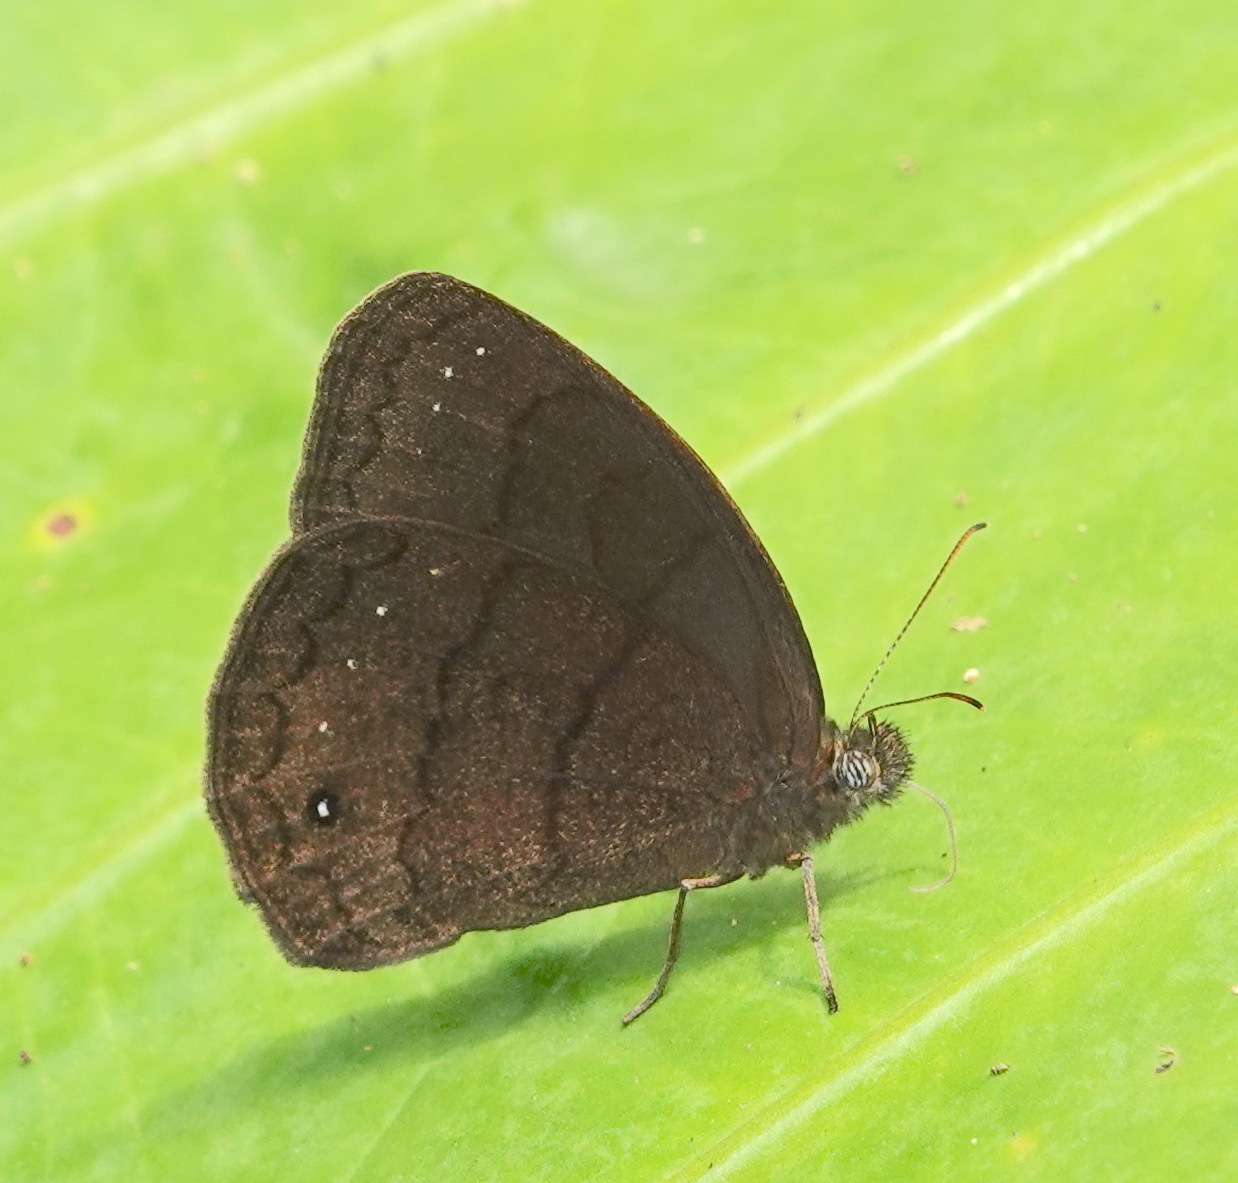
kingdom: Animalia
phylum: Arthropoda
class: Insecta
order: Lepidoptera
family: Nymphalidae
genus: Forsterinaria
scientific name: Forsterinaria
